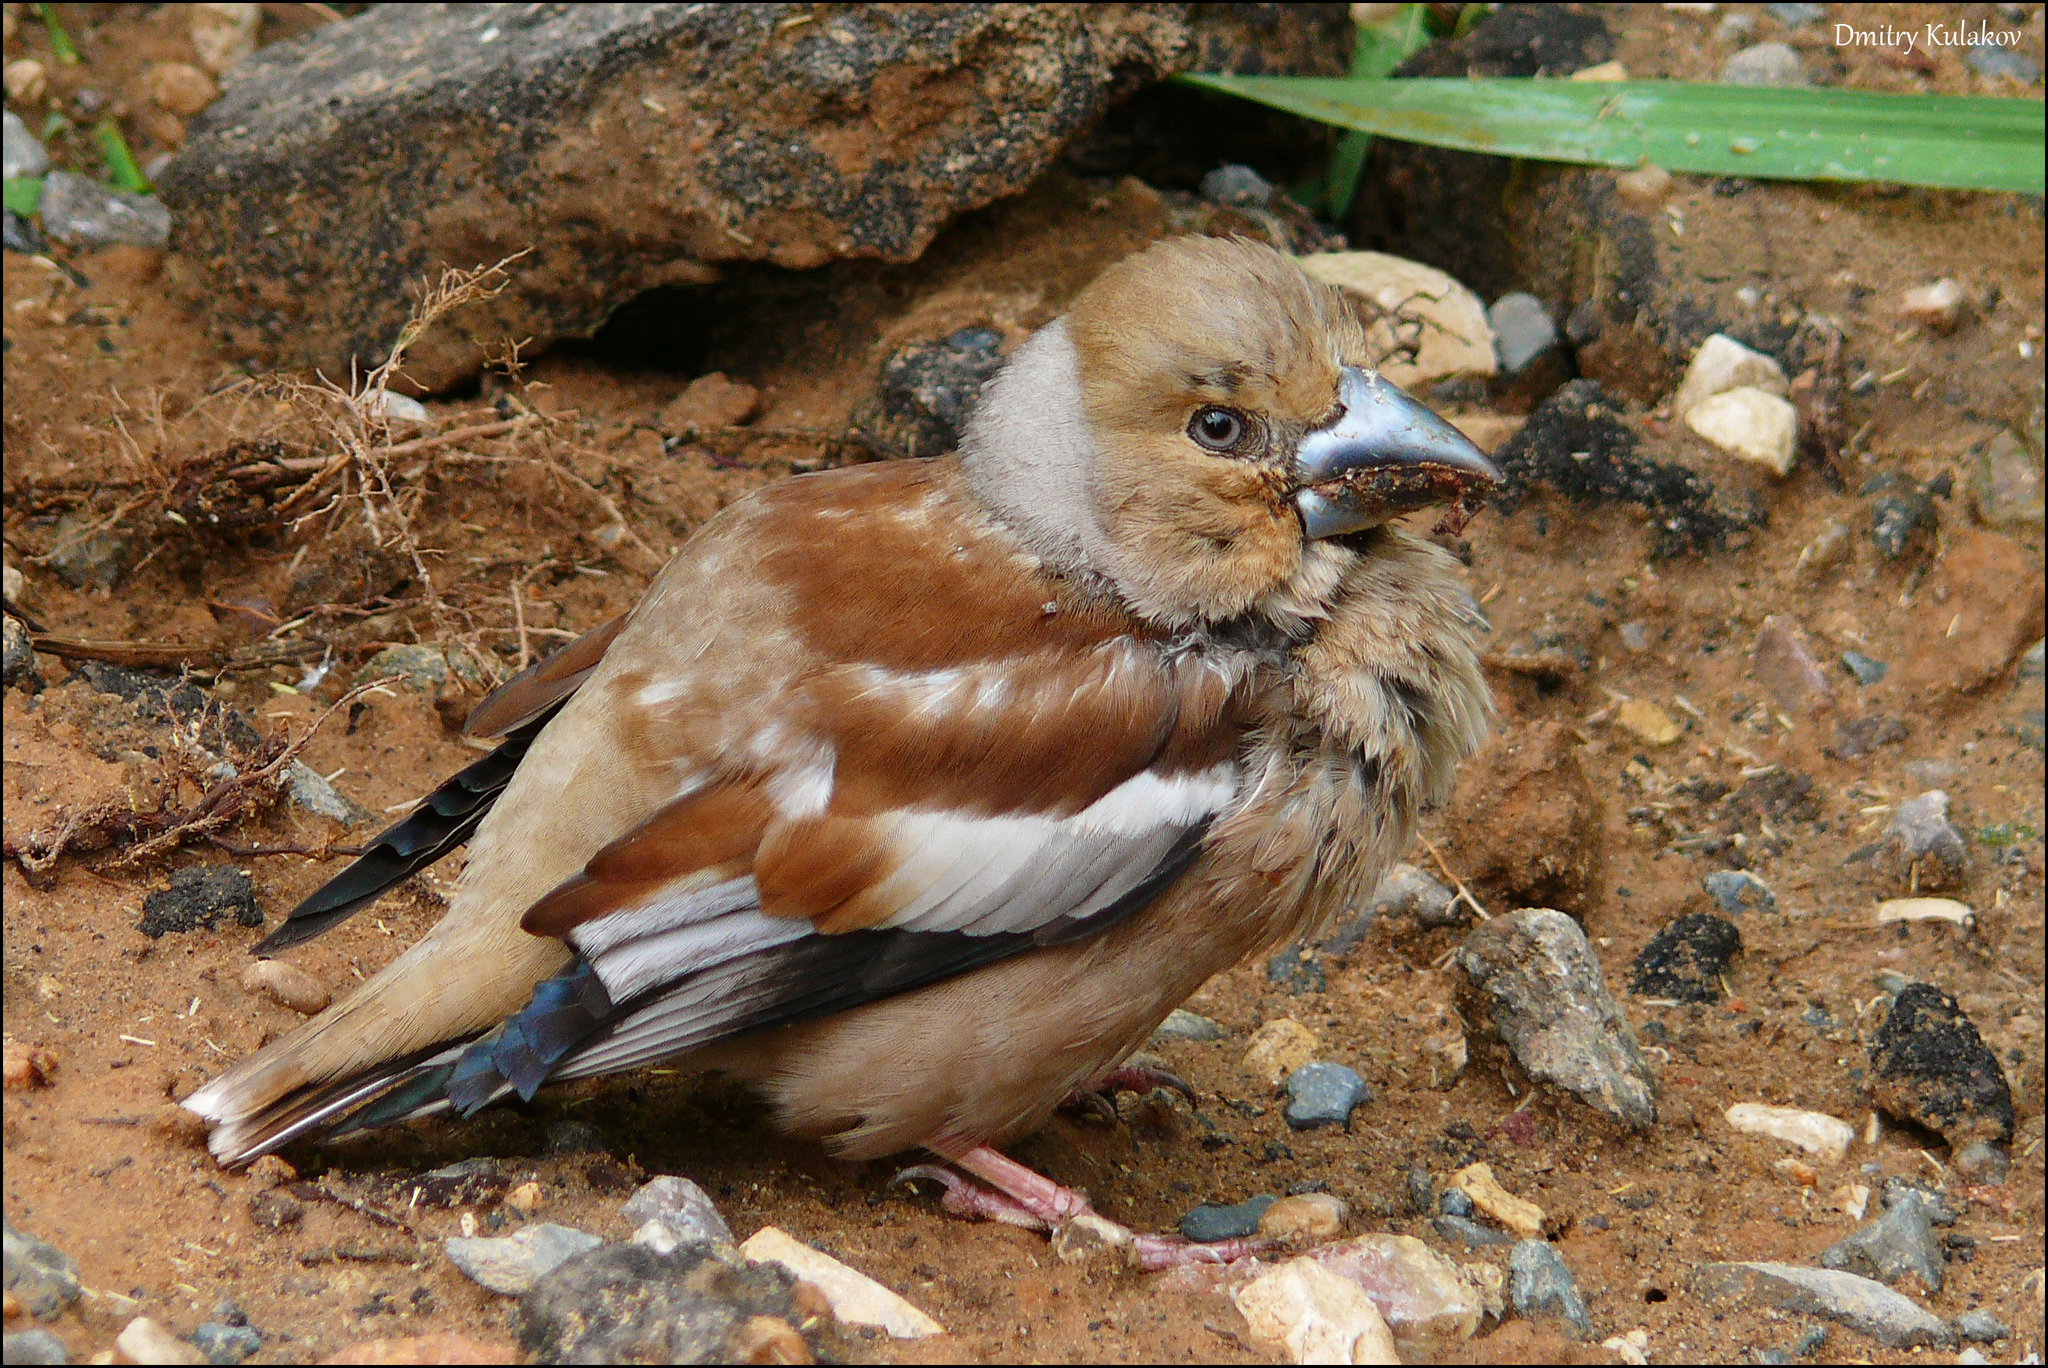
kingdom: Animalia
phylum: Chordata
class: Aves
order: Passeriformes
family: Fringillidae
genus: Coccothraustes
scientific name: Coccothraustes coccothraustes
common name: Hawfinch
